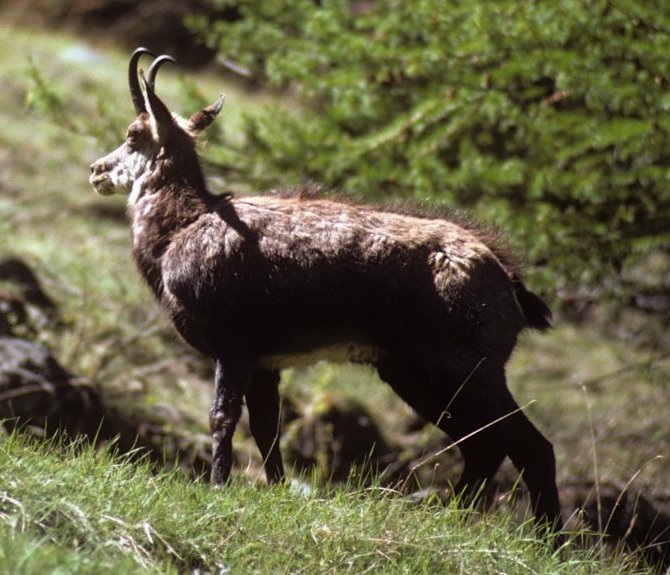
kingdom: Animalia
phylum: Chordata
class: Mammalia
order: Artiodactyla
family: Bovidae
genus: Rupicapra
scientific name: Rupicapra rupicapra
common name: Chamois
